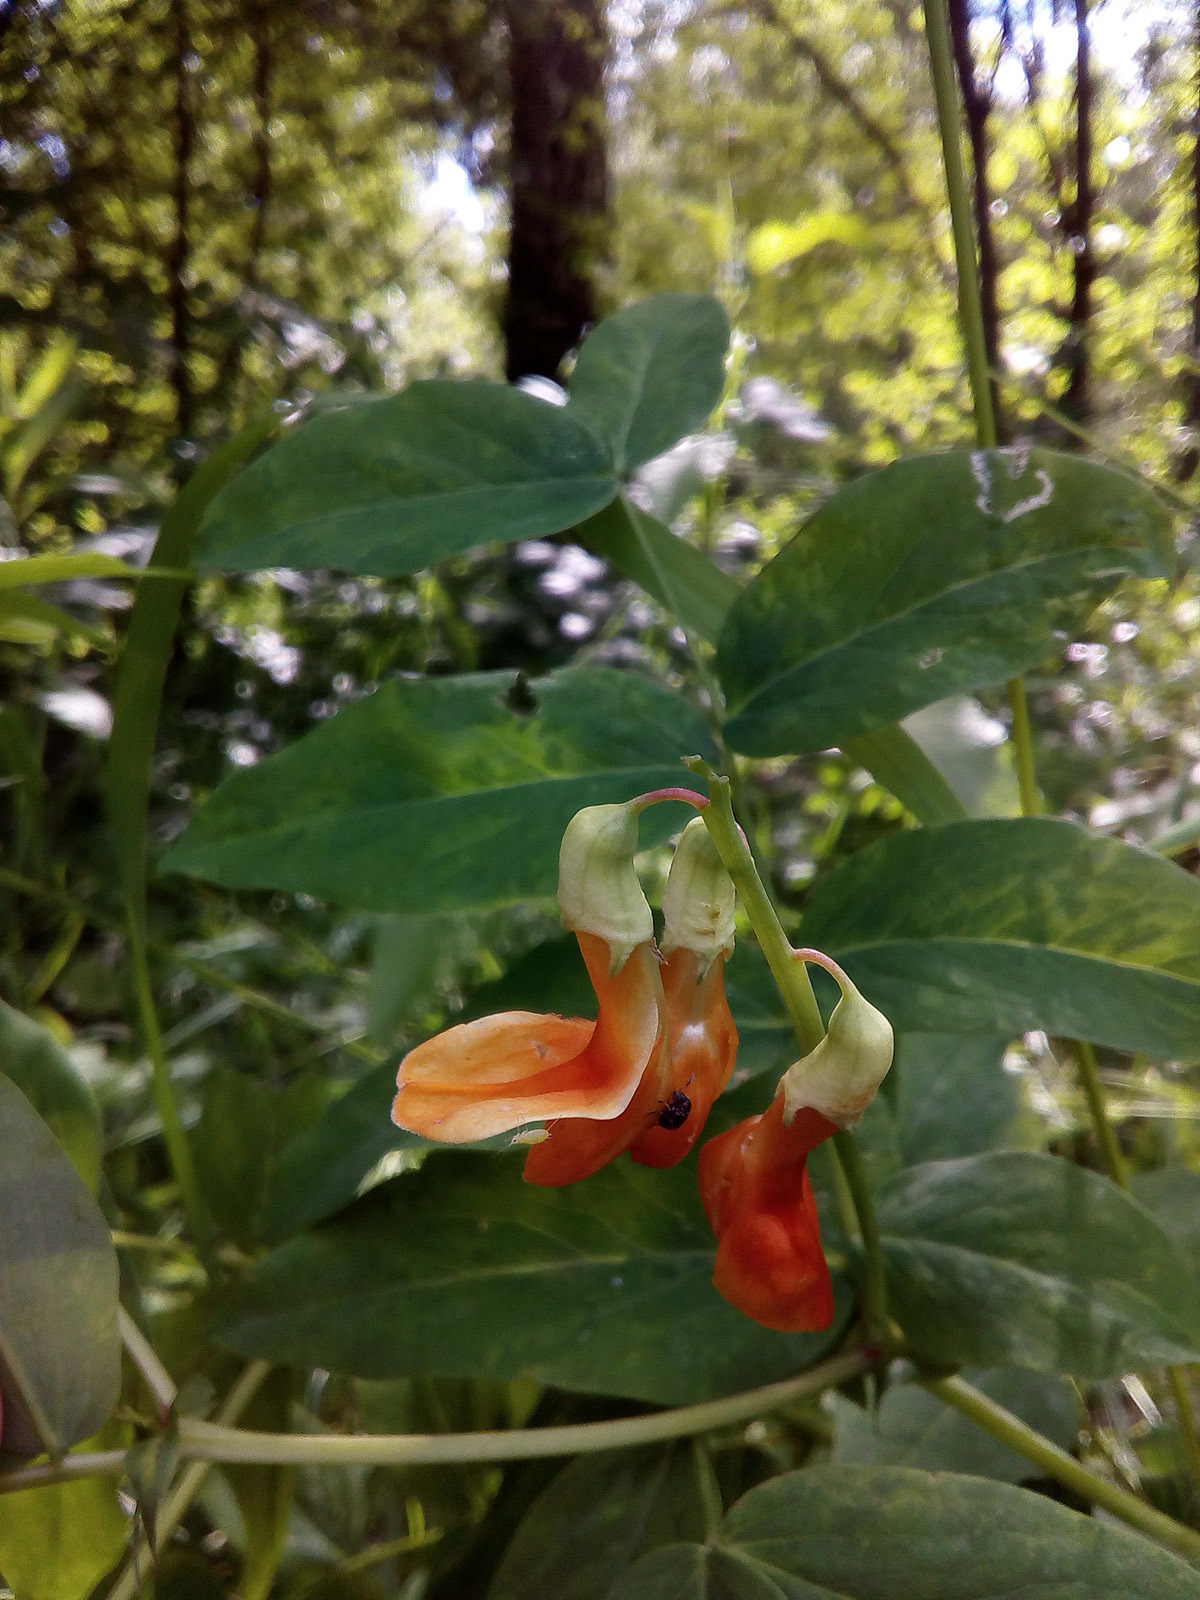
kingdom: Plantae
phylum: Tracheophyta
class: Magnoliopsida
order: Fabales
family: Fabaceae
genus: Lathyrus
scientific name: Lathyrus gmelinii
